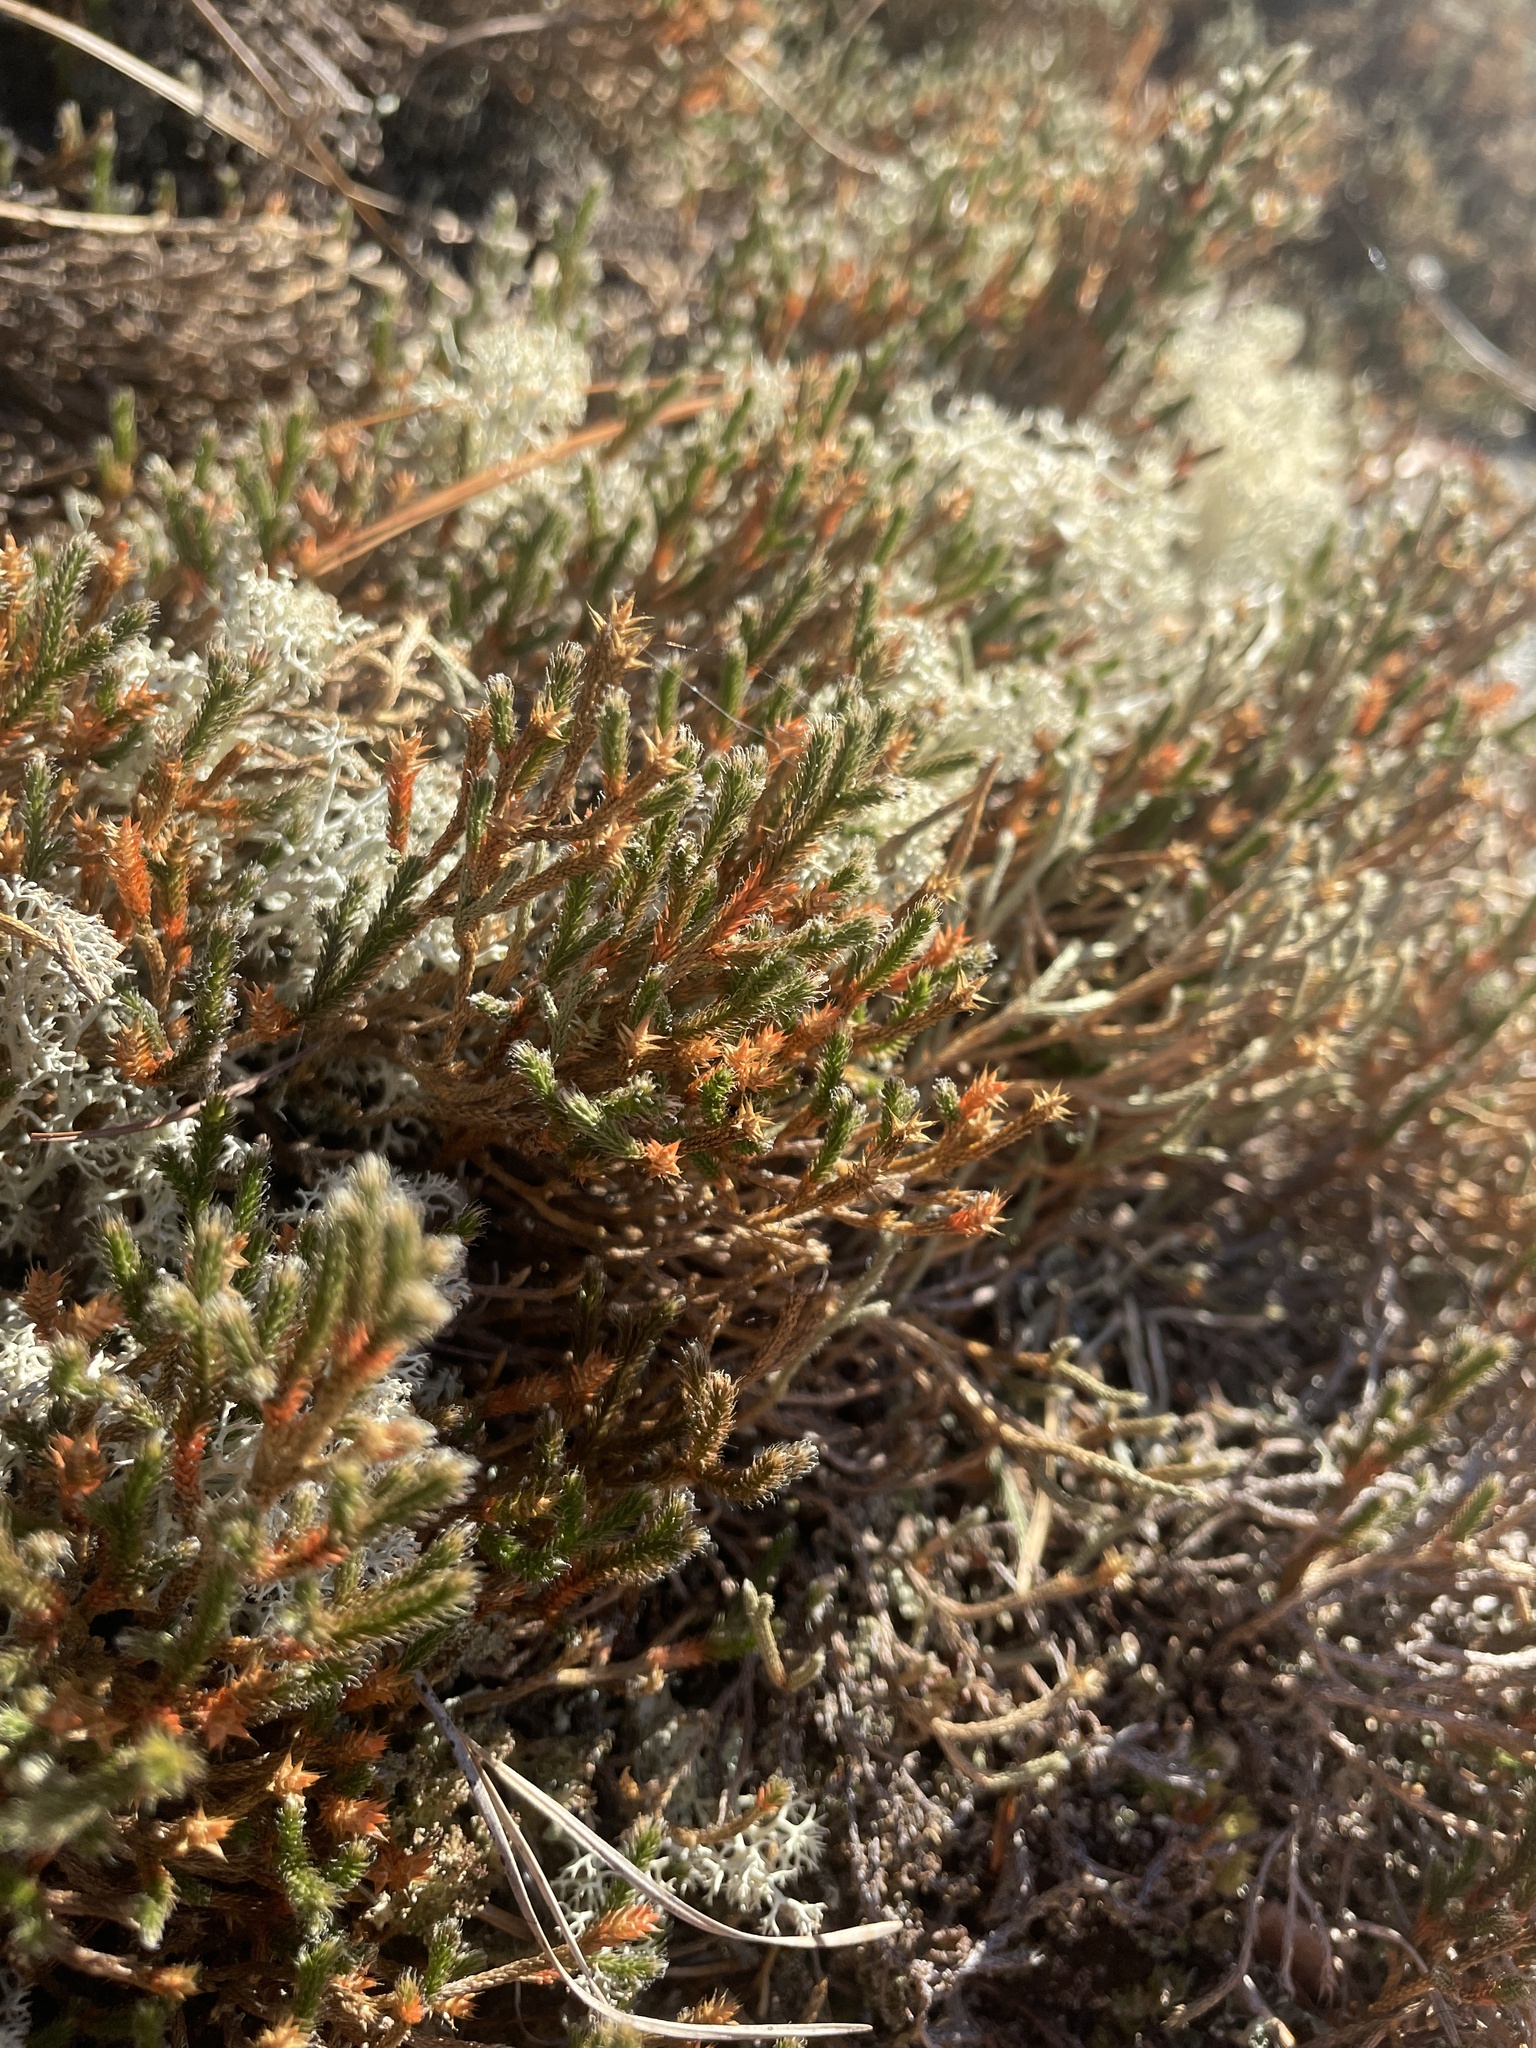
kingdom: Plantae
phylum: Tracheophyta
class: Lycopodiopsida
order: Selaginellales
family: Selaginellaceae
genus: Selaginella
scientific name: Selaginella tortipila
